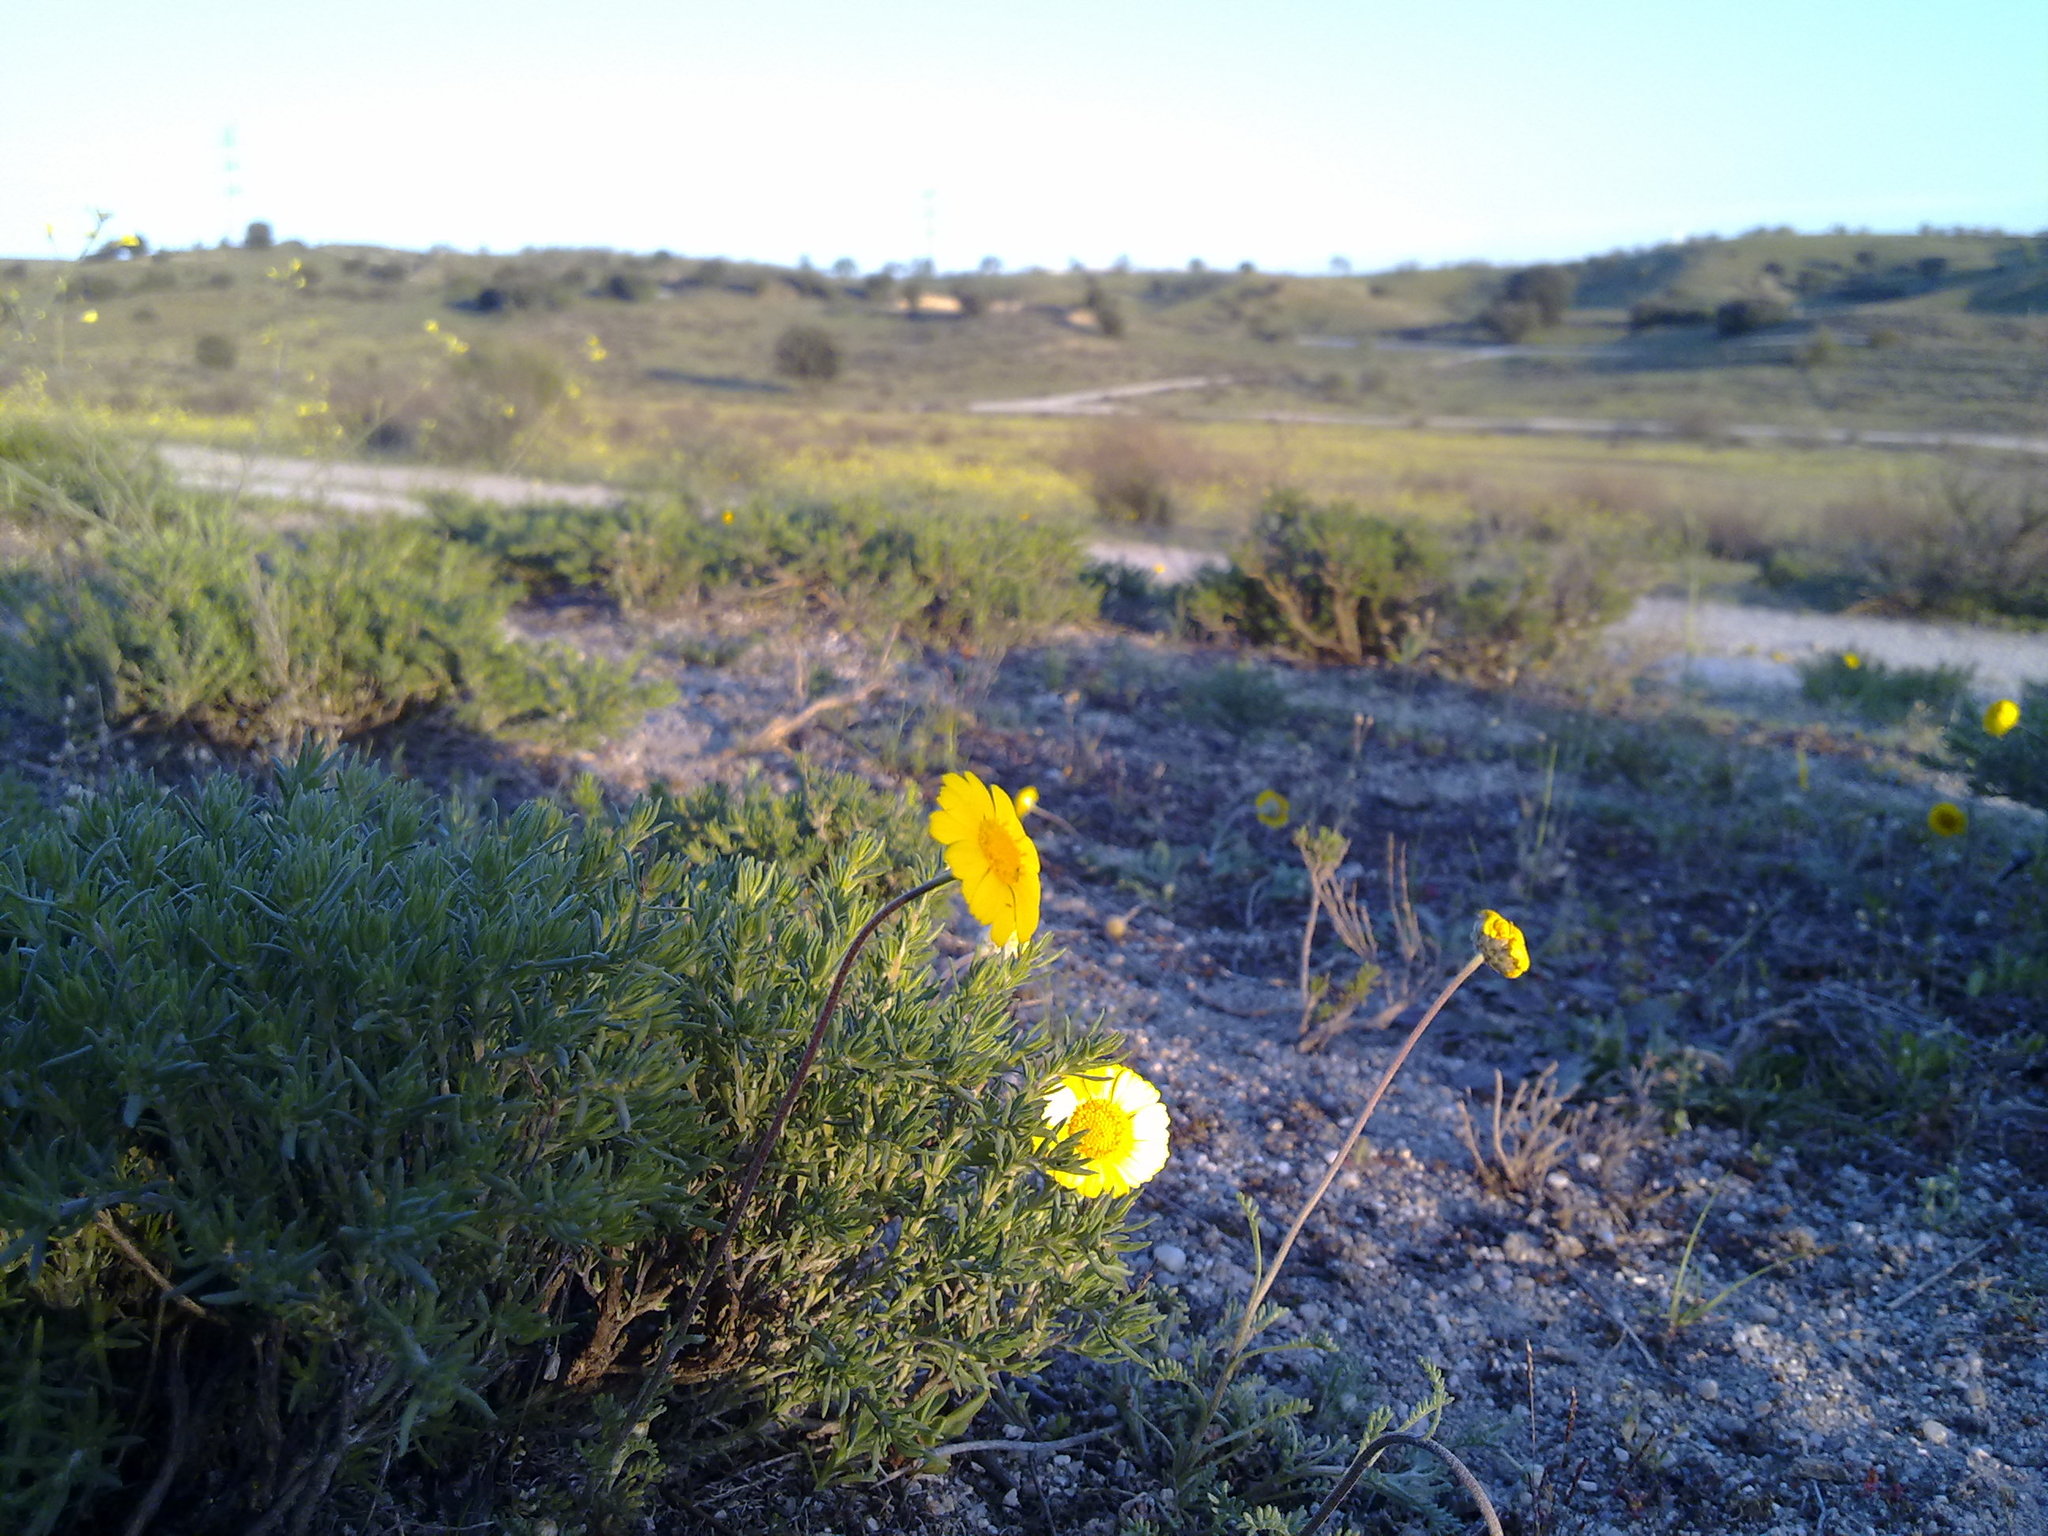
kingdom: Plantae
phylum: Tracheophyta
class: Magnoliopsida
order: Asterales
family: Asteraceae
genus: Prolongoa
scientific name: Prolongoa hispanica
